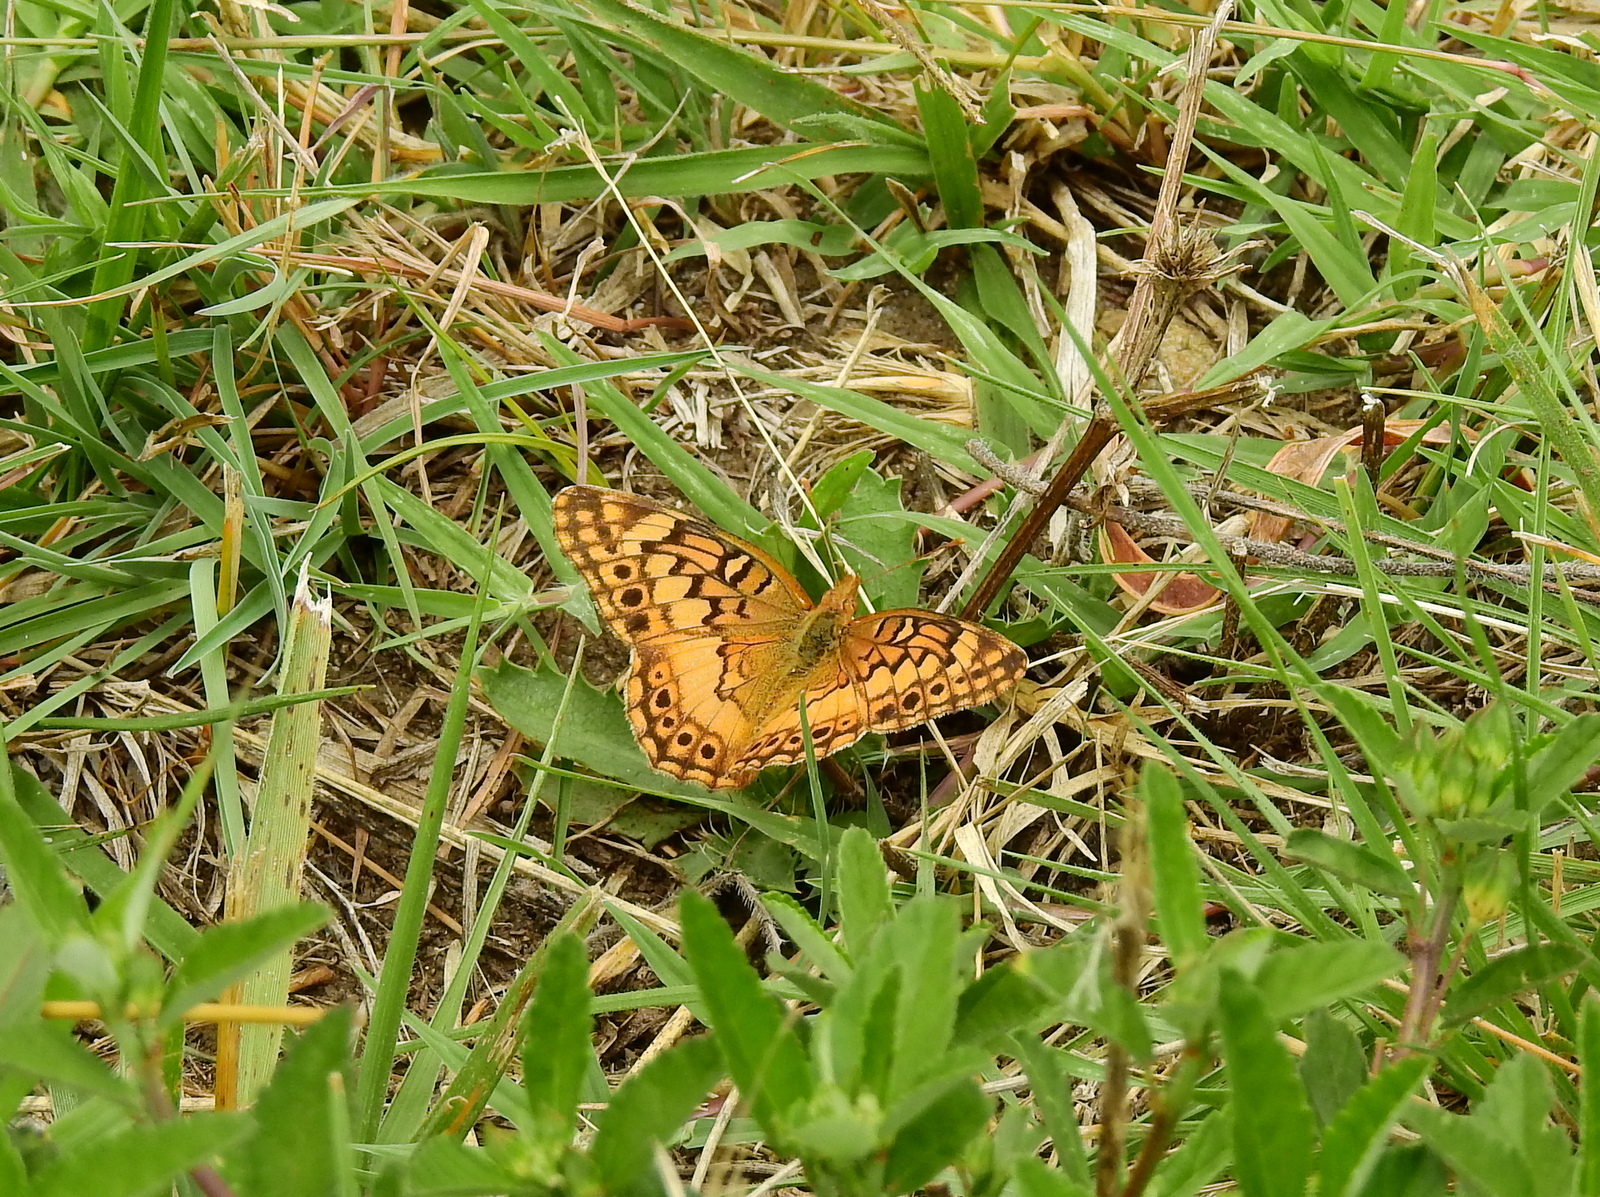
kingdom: Animalia
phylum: Arthropoda
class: Insecta
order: Lepidoptera
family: Nymphalidae
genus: Euptoieta
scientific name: Euptoieta hortensia
